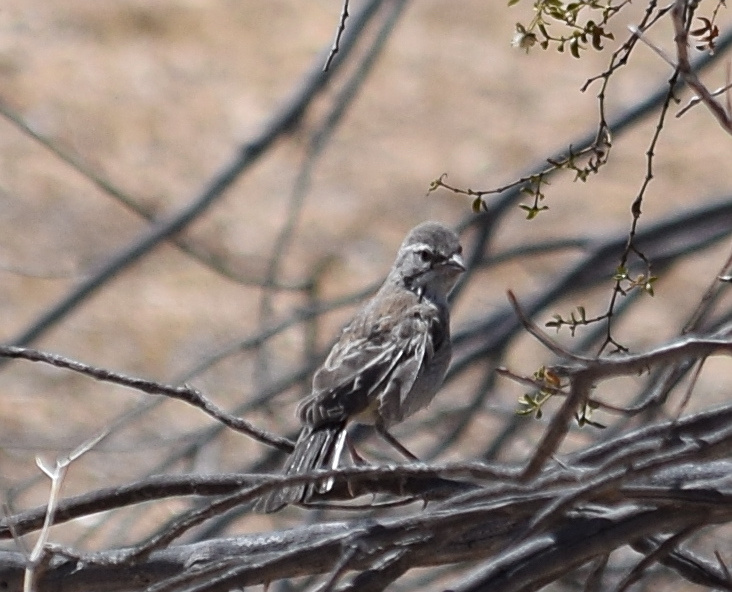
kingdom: Animalia
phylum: Chordata
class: Aves
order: Passeriformes
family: Passerellidae
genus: Amphispiza
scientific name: Amphispiza bilineata
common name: Black-throated sparrow
